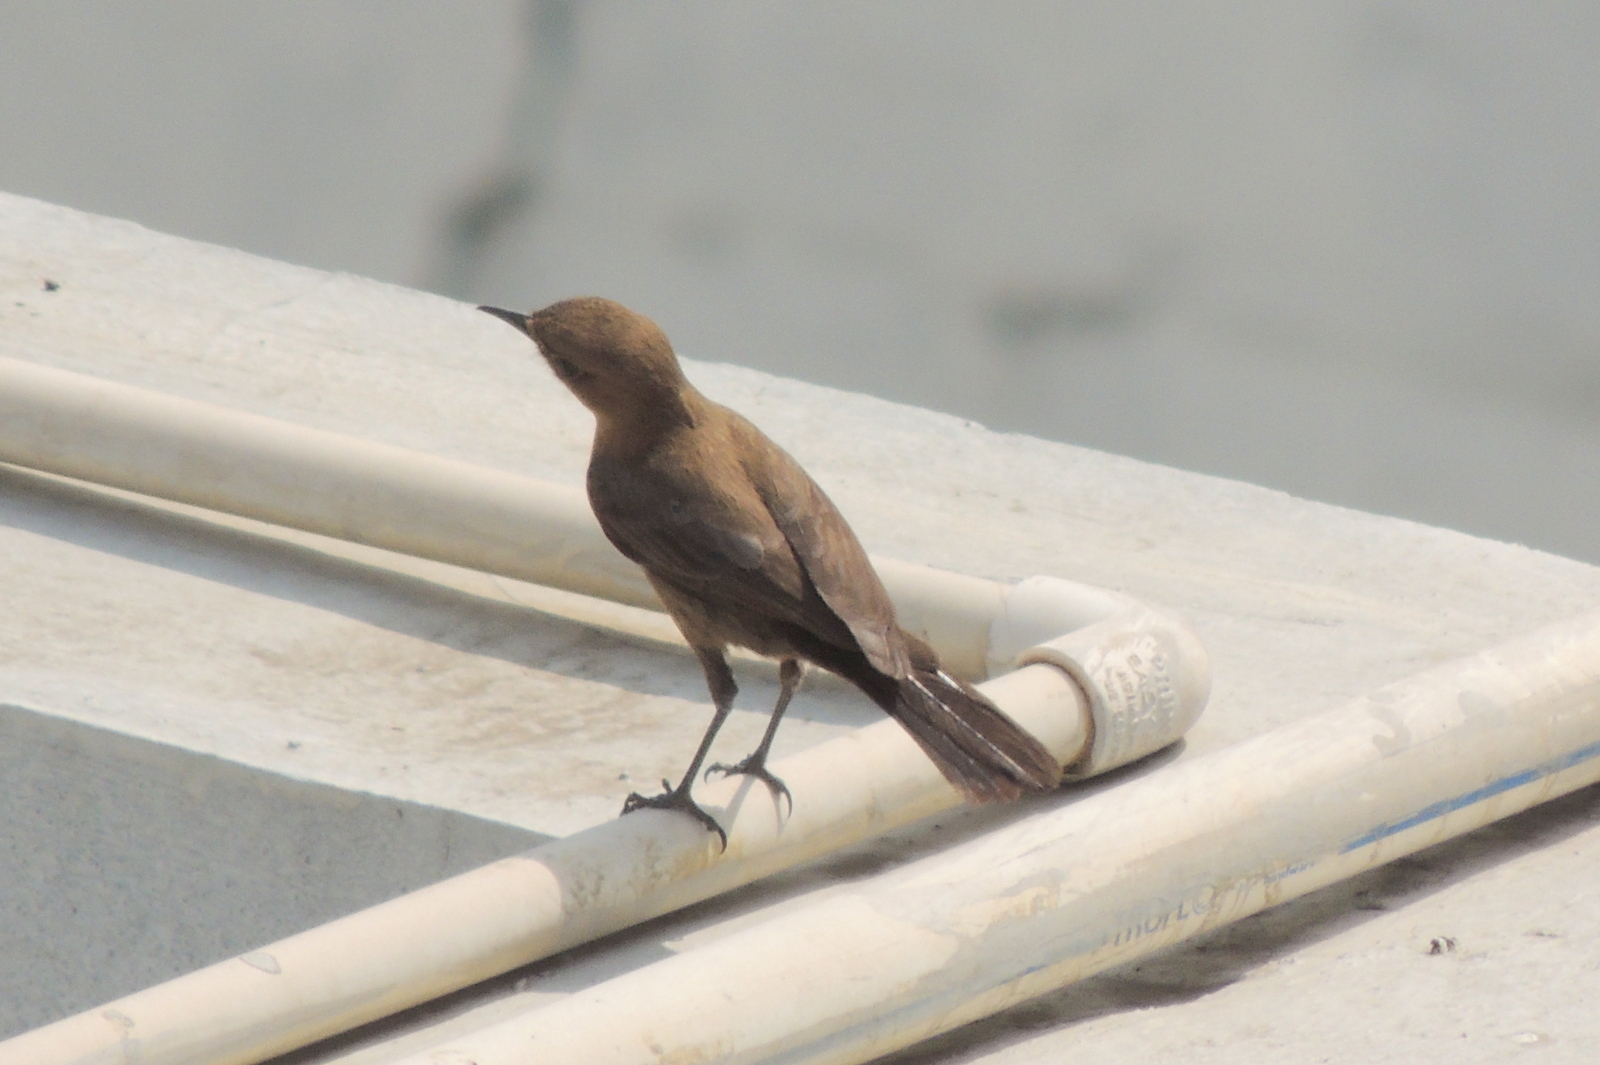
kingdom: Animalia
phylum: Chordata
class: Aves
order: Passeriformes
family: Muscicapidae
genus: Oenanthe
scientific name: Oenanthe fusca
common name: Brown rock chat
